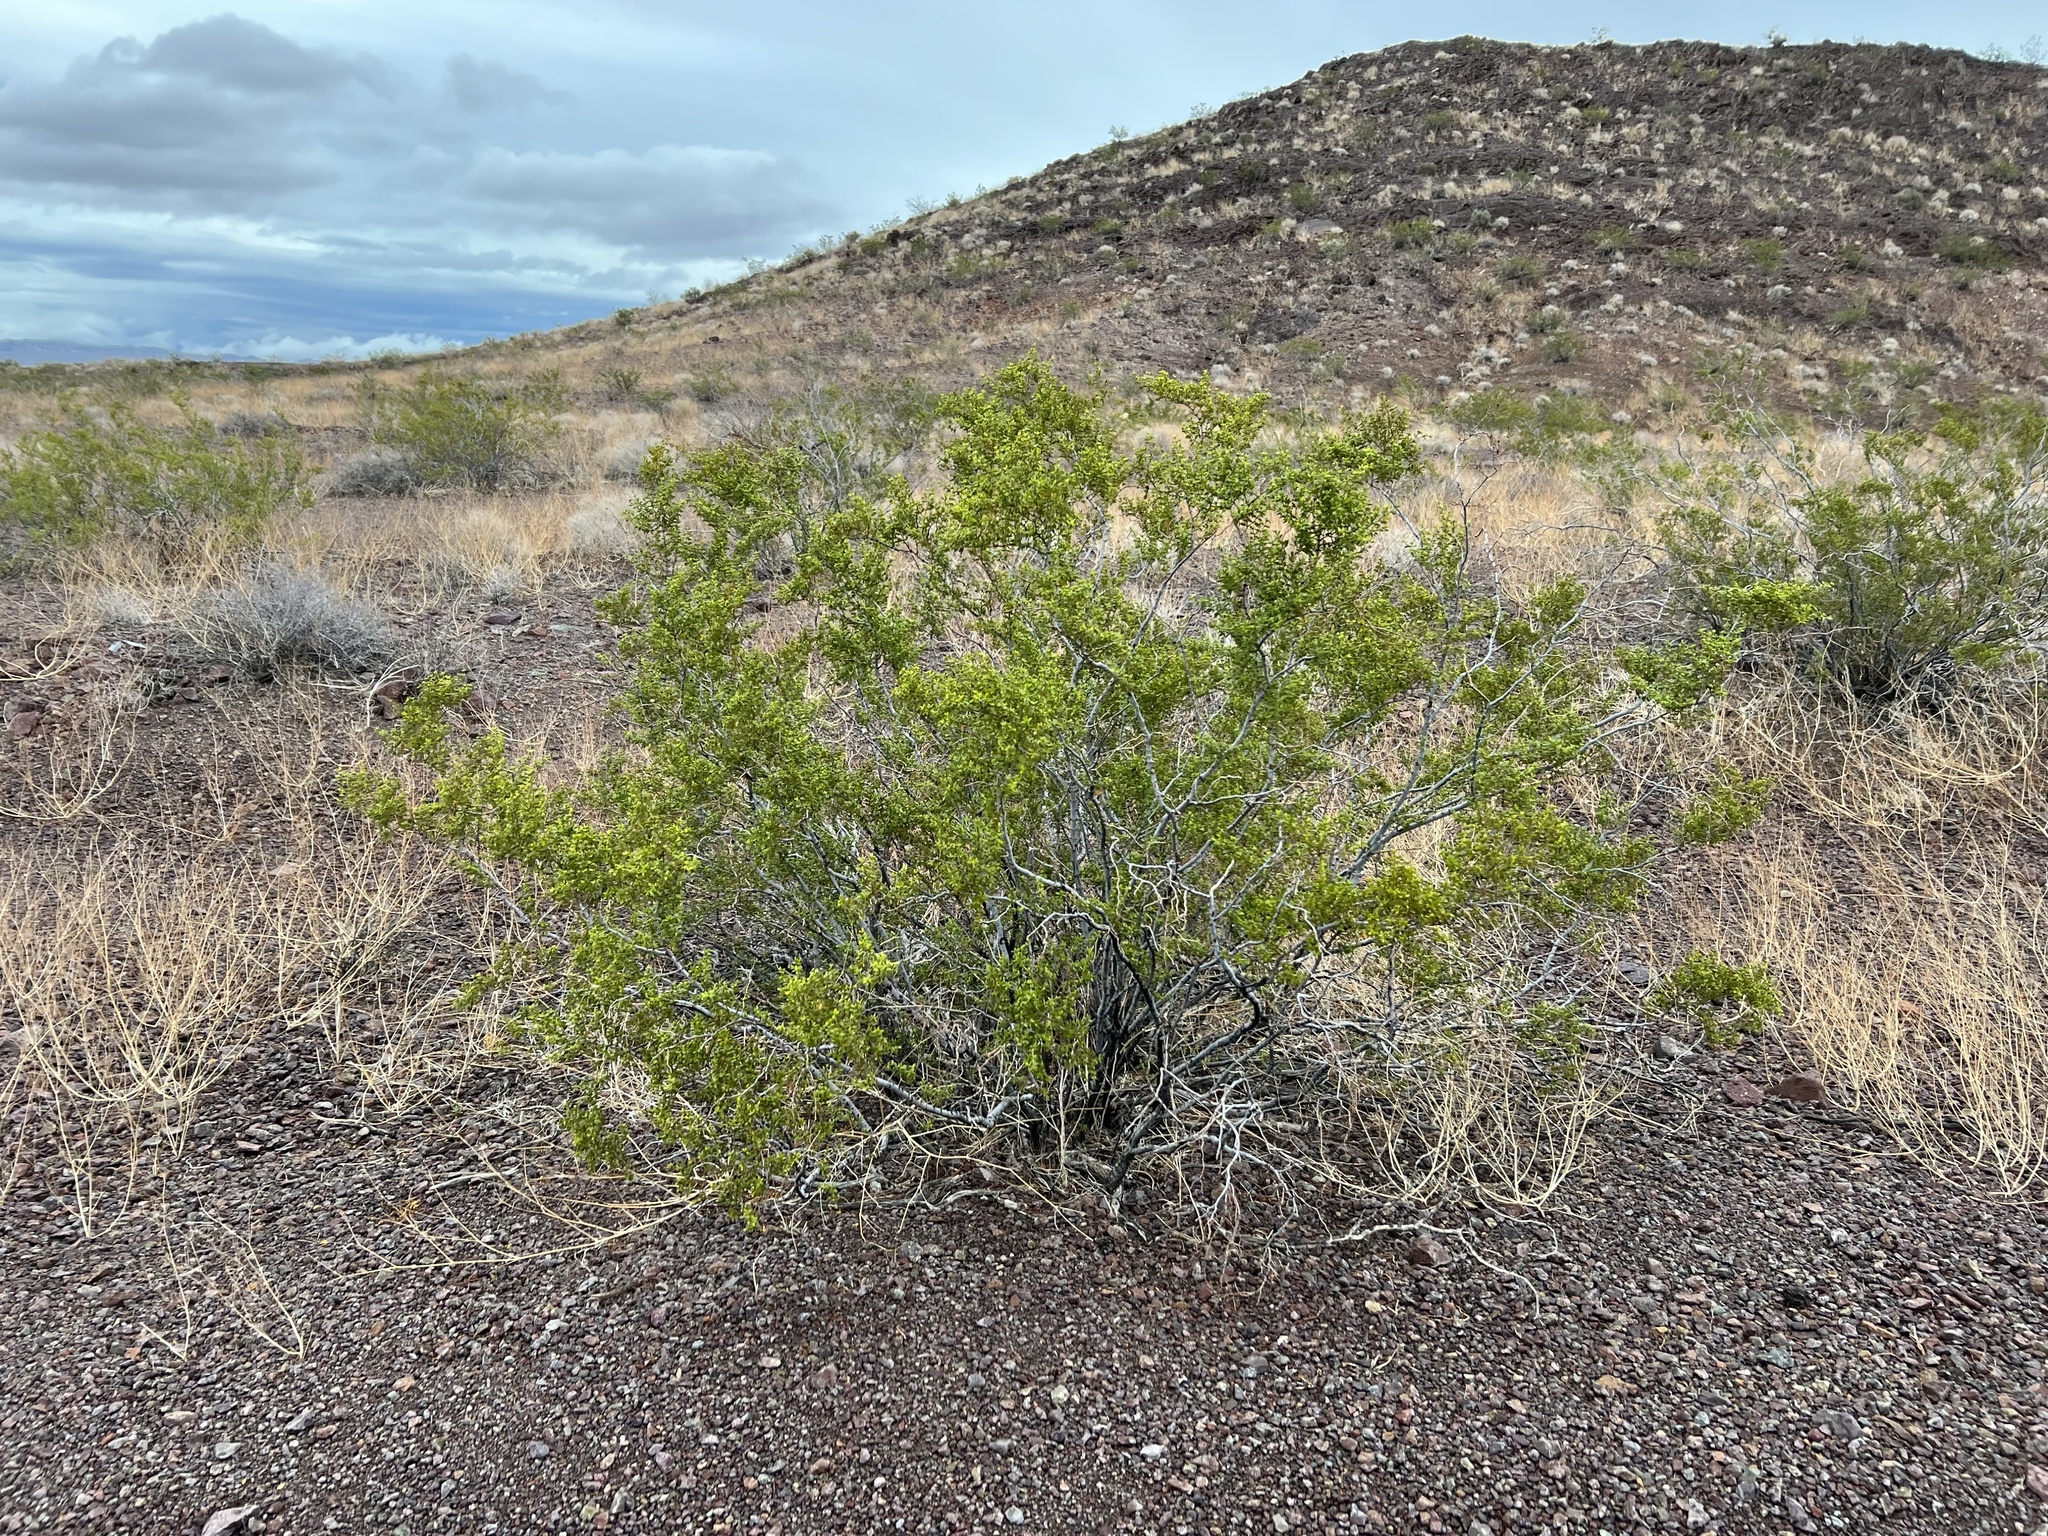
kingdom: Plantae
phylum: Tracheophyta
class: Magnoliopsida
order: Zygophyllales
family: Zygophyllaceae
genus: Larrea
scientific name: Larrea tridentata
